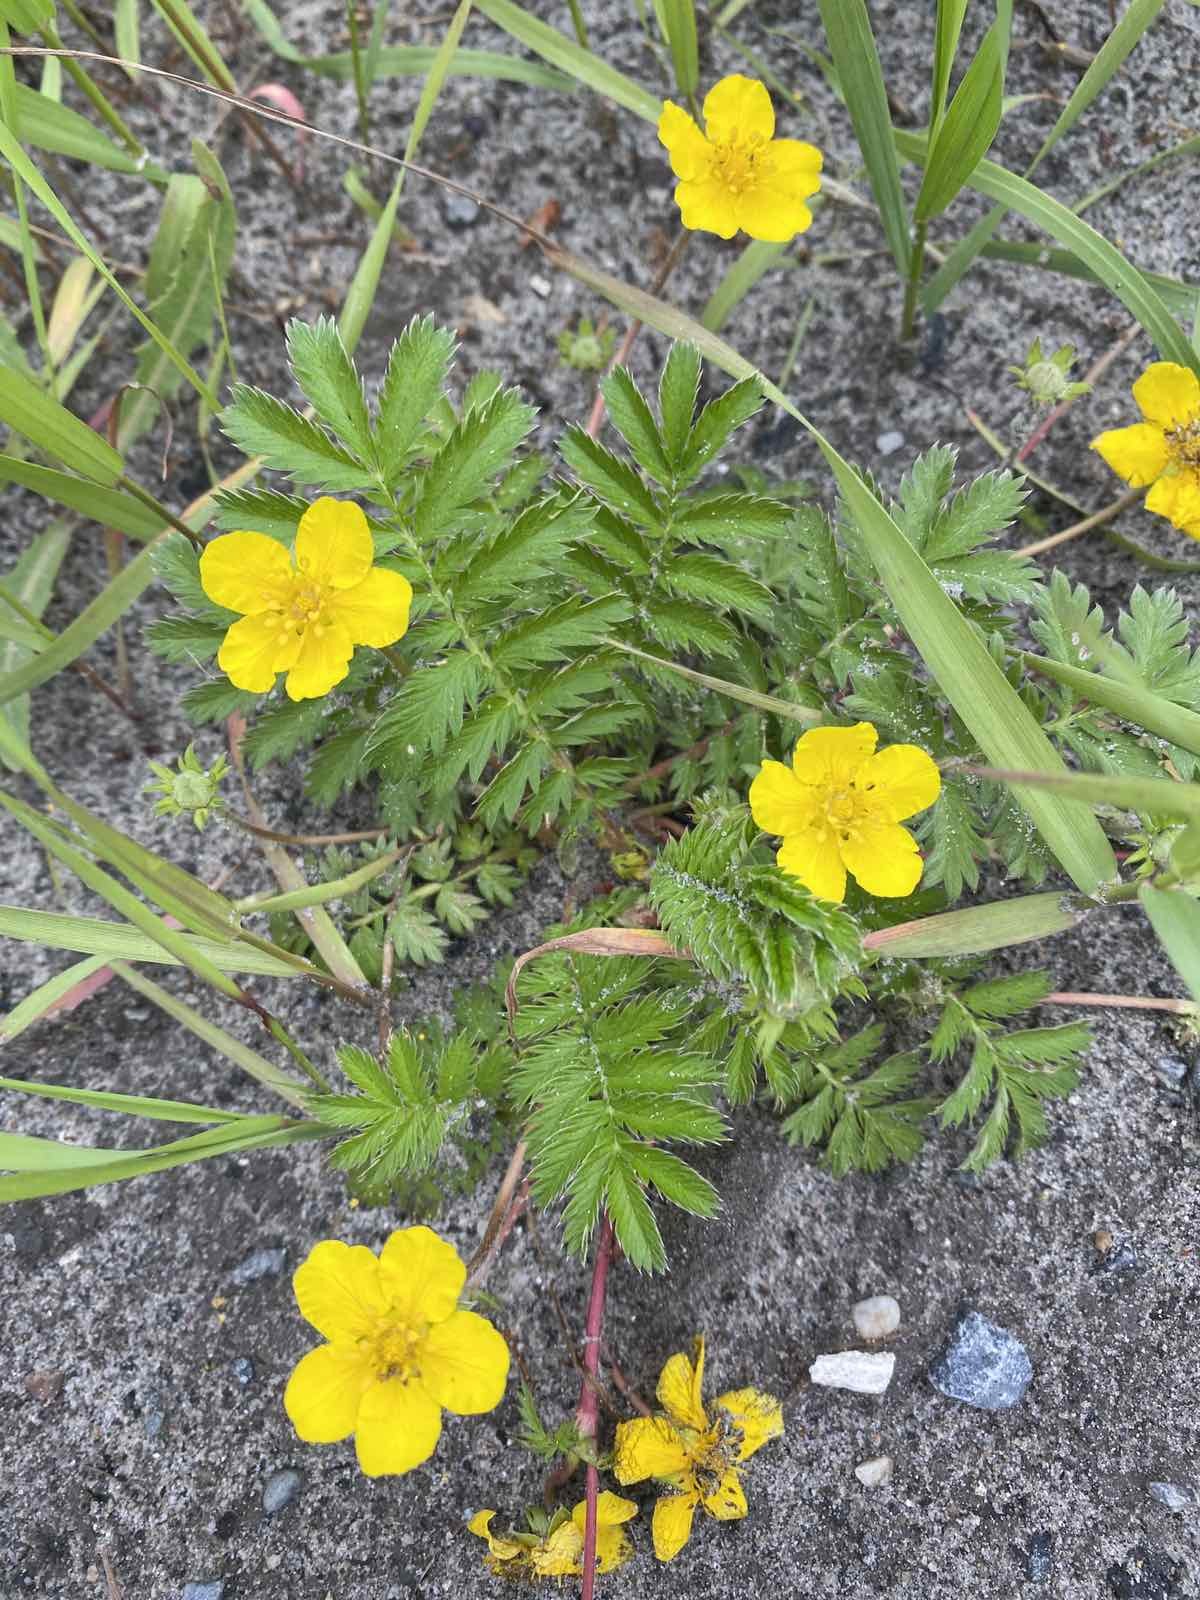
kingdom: Plantae
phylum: Tracheophyta
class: Magnoliopsida
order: Rosales
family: Rosaceae
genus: Argentina
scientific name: Argentina anserina
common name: Common silverweed
